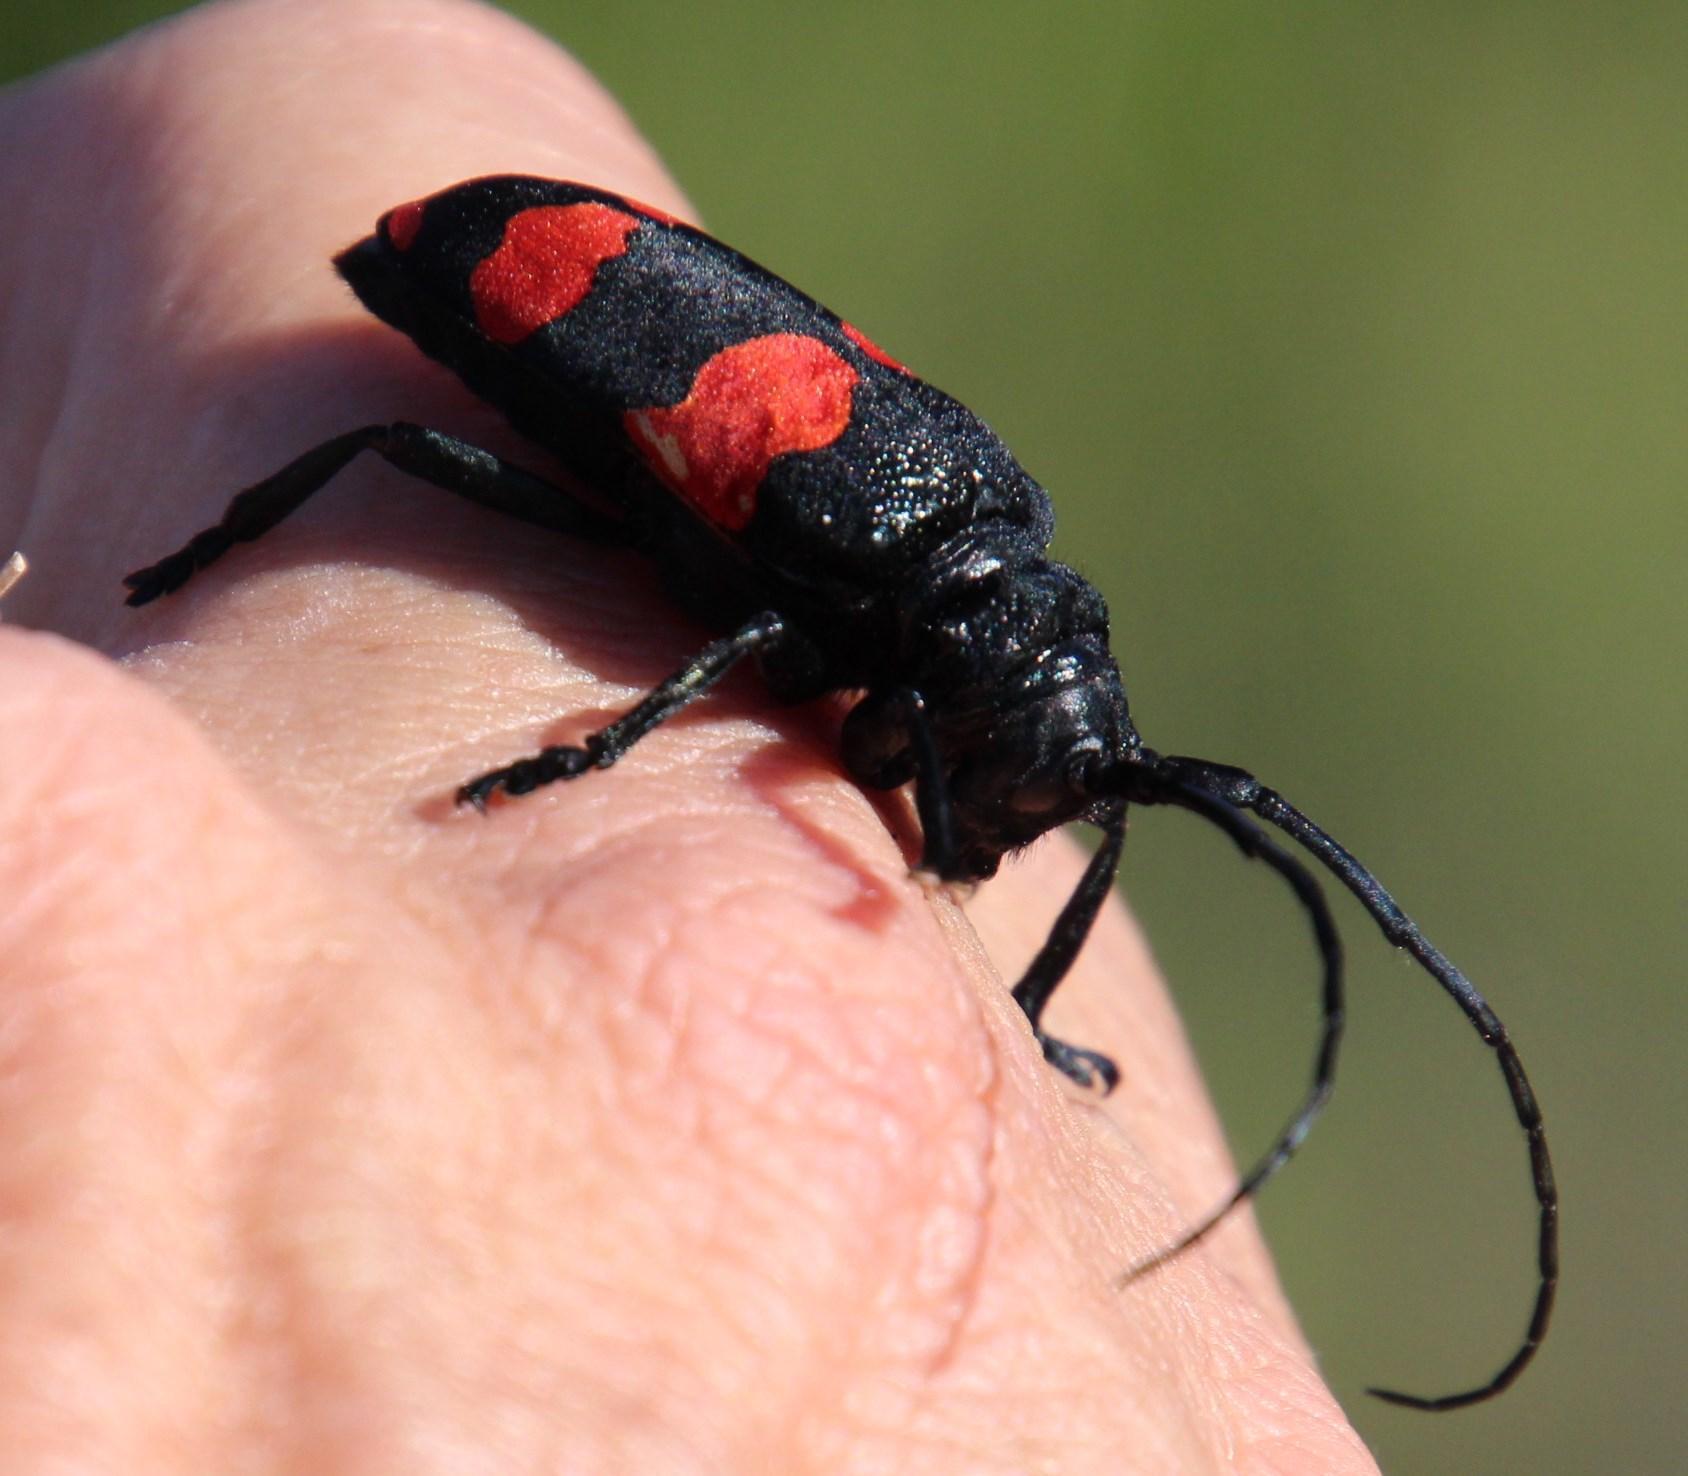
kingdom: Animalia
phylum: Arthropoda
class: Insecta
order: Coleoptera
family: Cerambycidae
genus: Ceroplesis
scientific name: Ceroplesis aethiops
